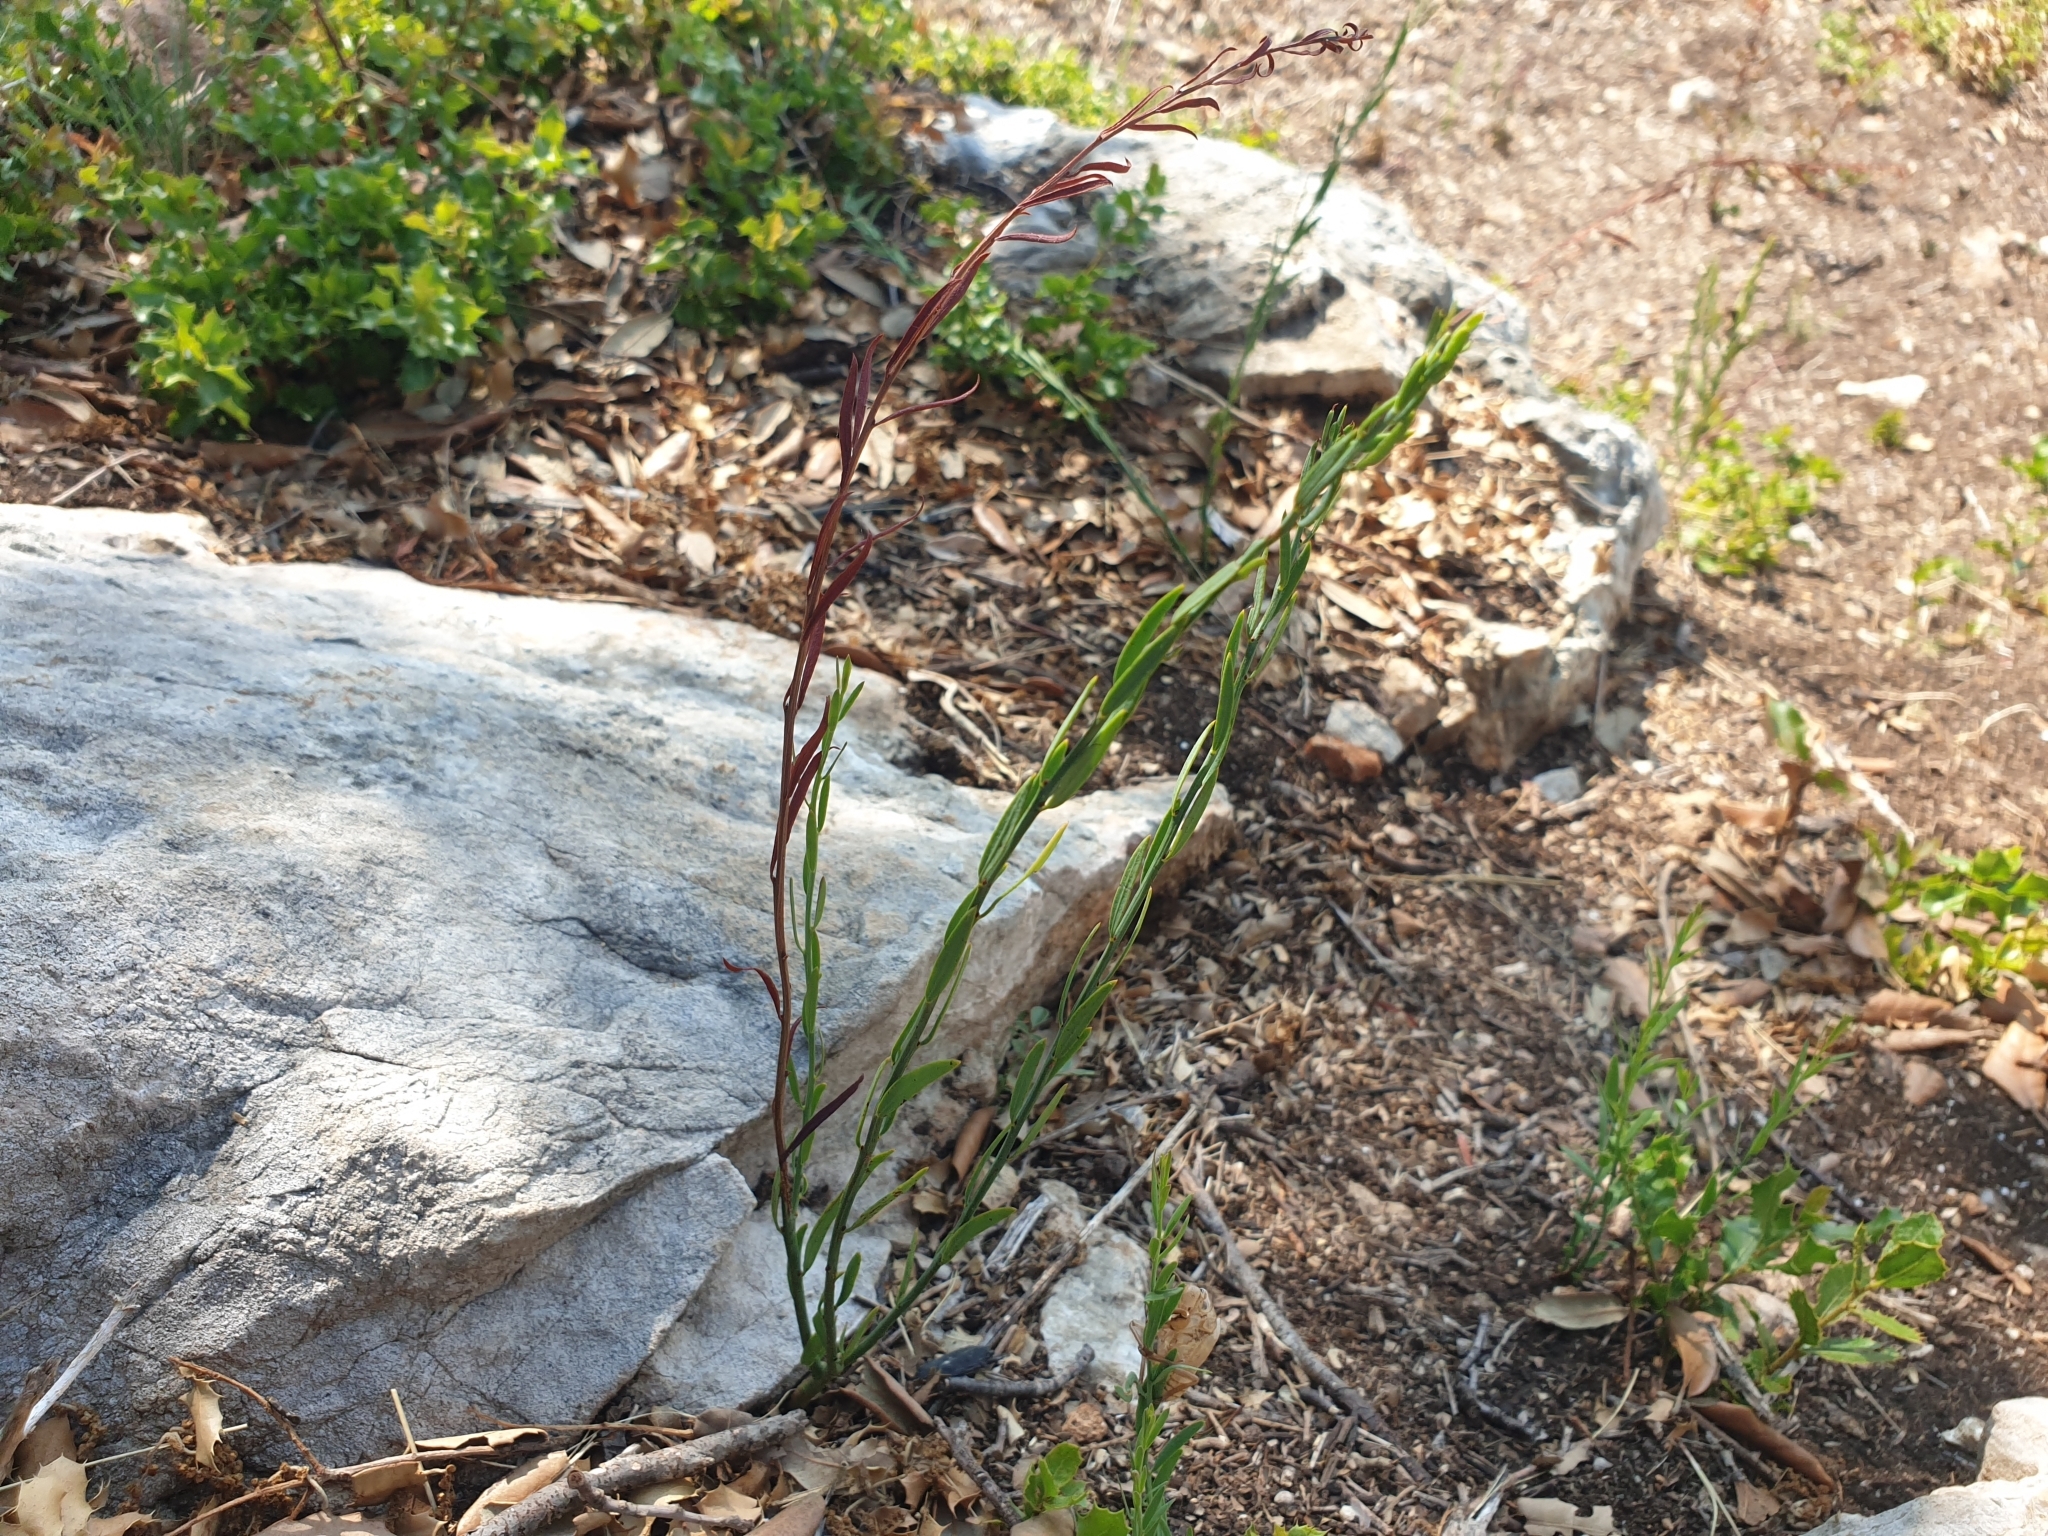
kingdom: Plantae
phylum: Tracheophyta
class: Magnoliopsida
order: Santalales
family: Santalaceae
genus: Osyris
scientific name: Osyris alba
